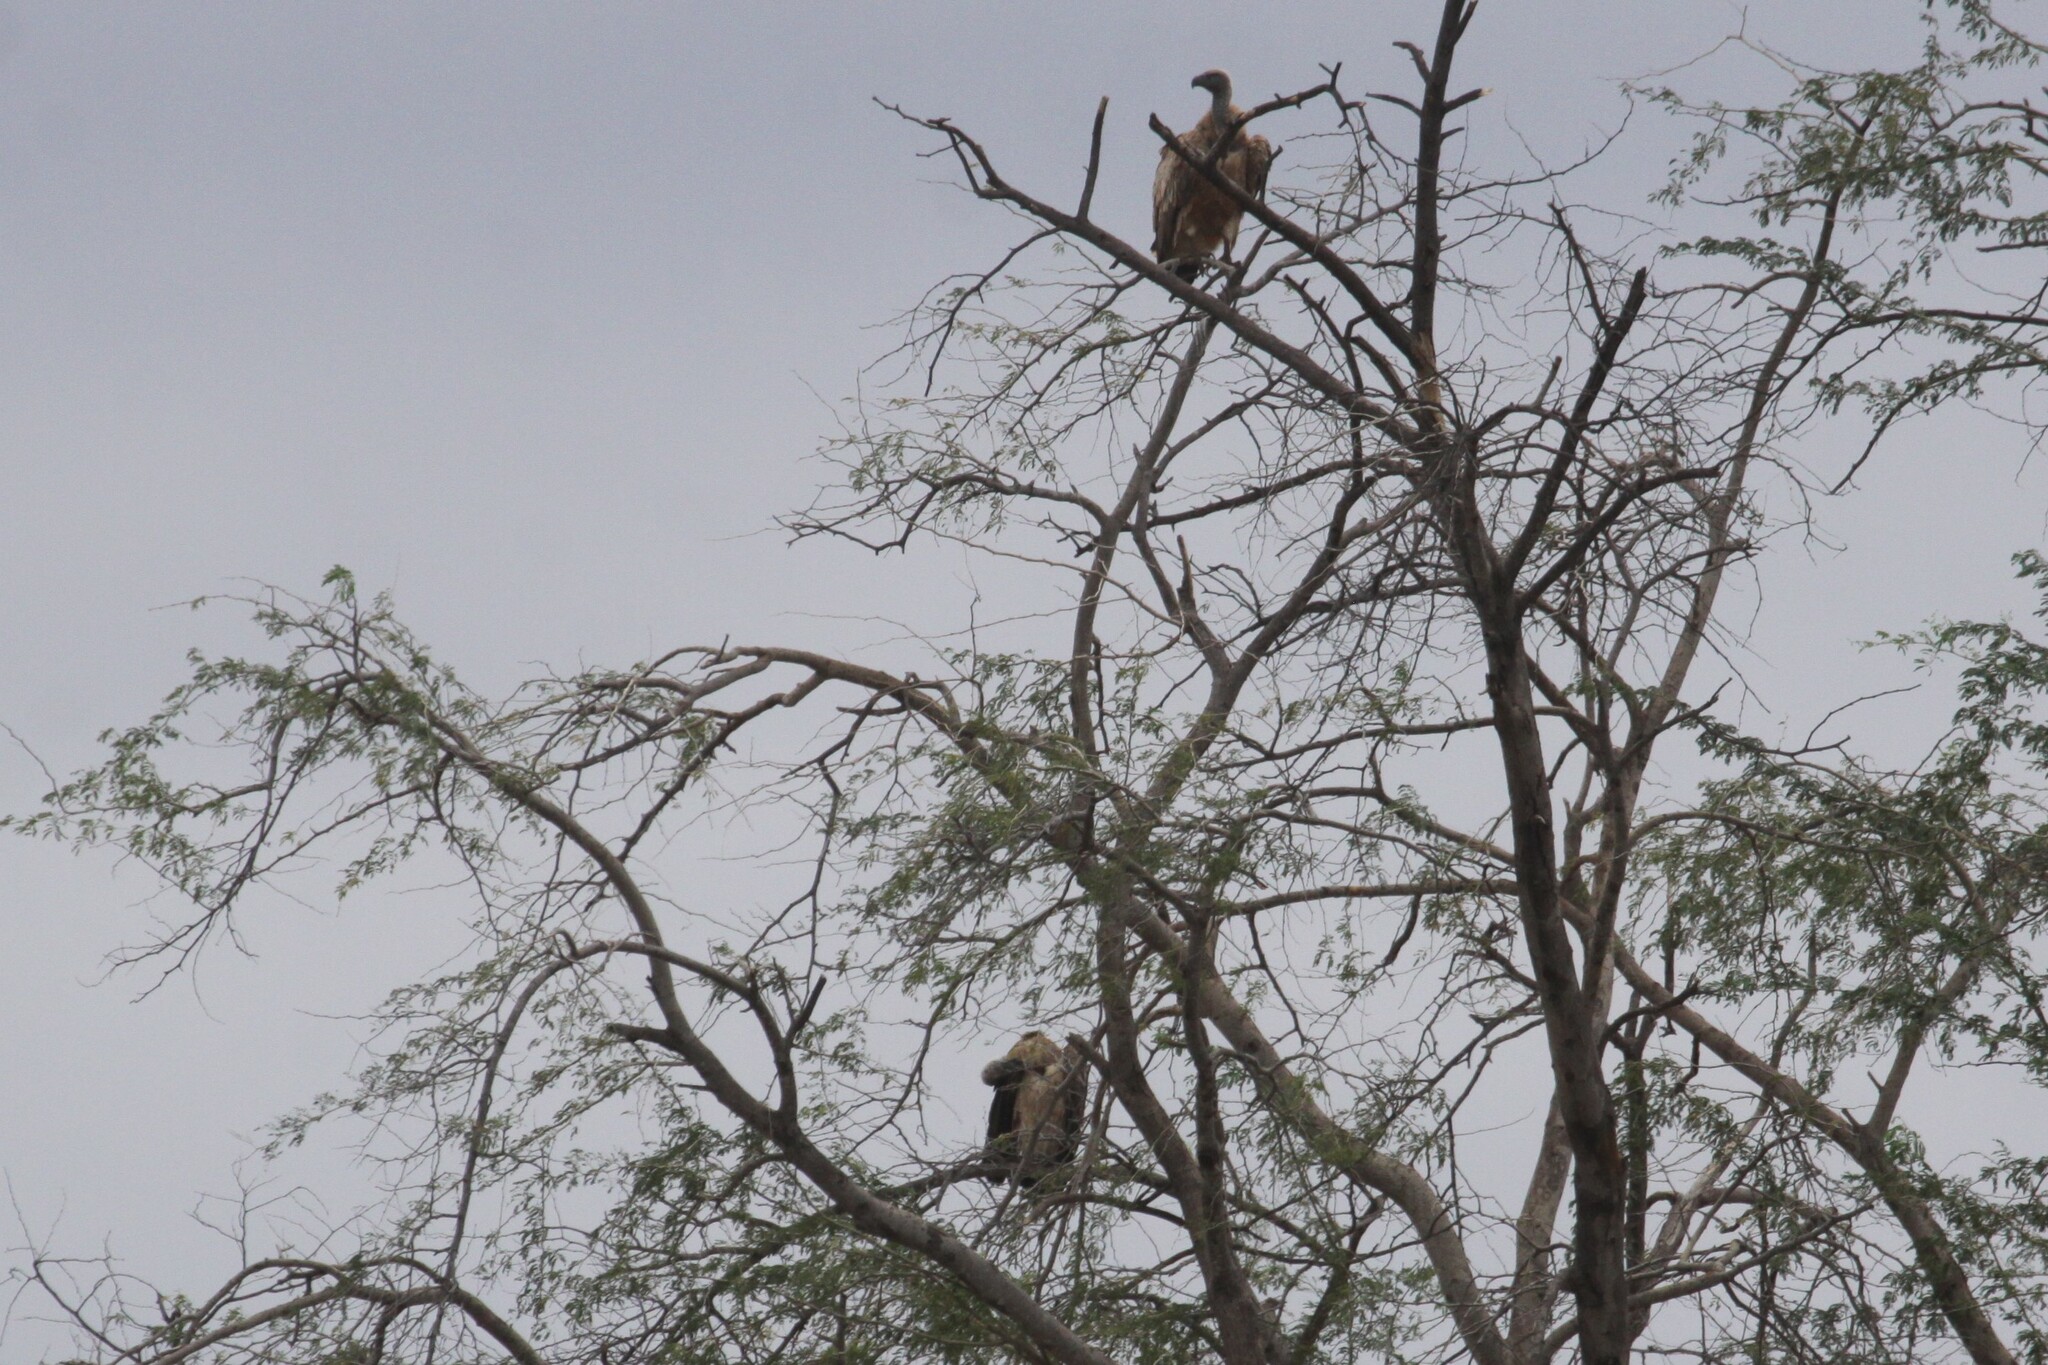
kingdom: Animalia
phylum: Chordata
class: Aves
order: Accipitriformes
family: Accipitridae
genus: Gyps
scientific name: Gyps africanus
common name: White-backed vulture
